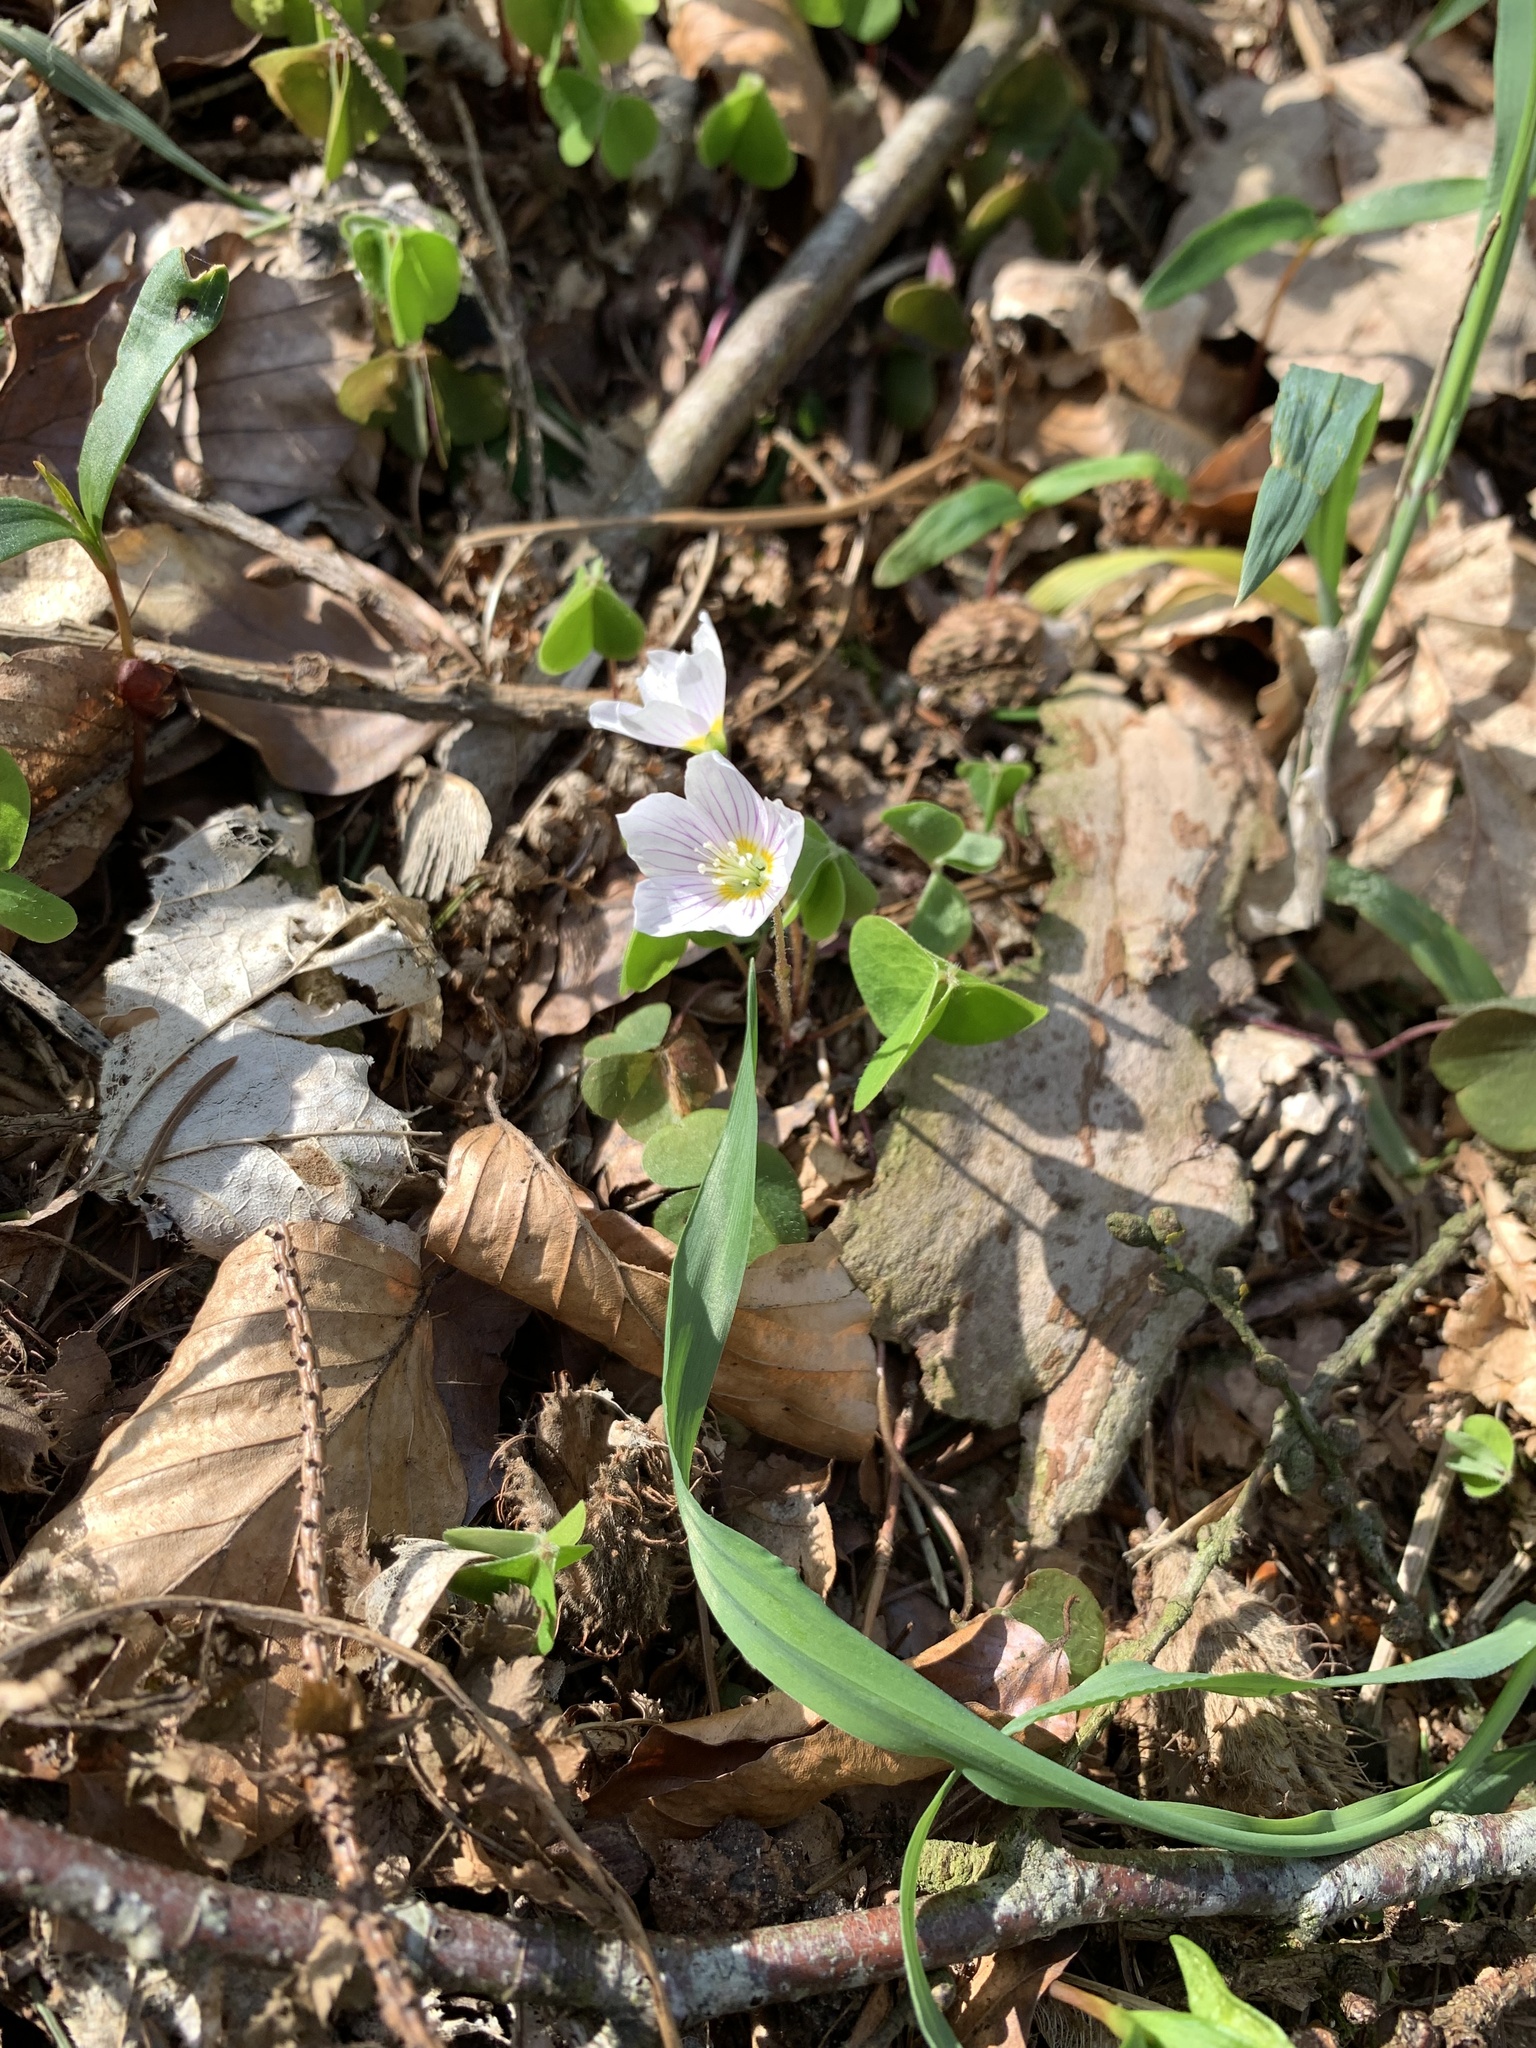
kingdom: Plantae
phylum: Tracheophyta
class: Magnoliopsida
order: Oxalidales
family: Oxalidaceae
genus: Oxalis
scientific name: Oxalis acetosella
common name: Wood-sorrel
